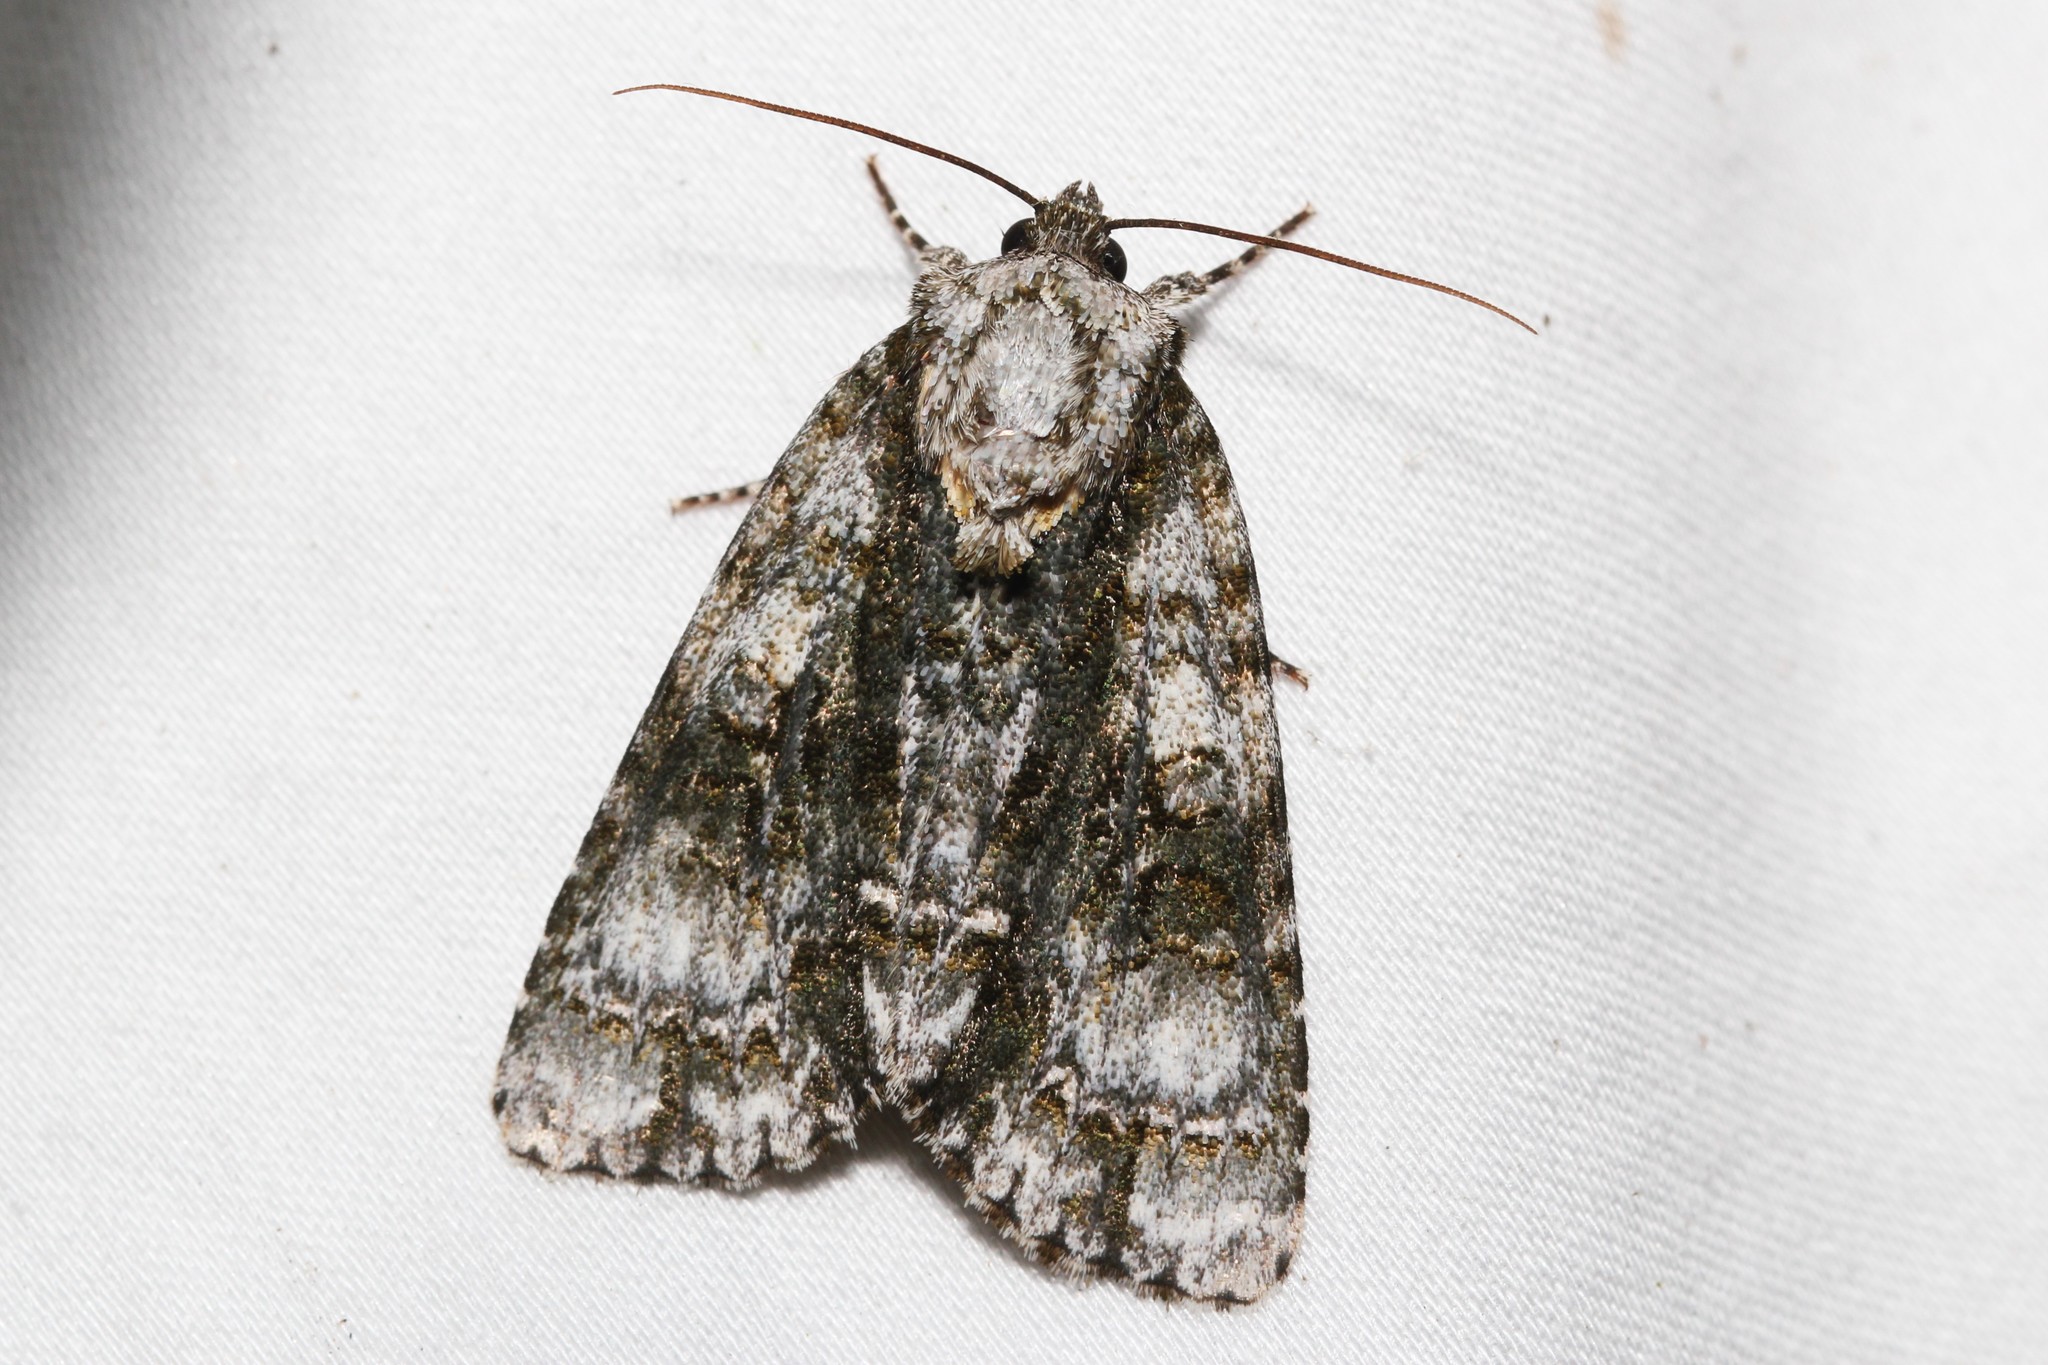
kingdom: Animalia
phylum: Arthropoda
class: Insecta
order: Lepidoptera
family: Noctuidae
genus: Acronicta
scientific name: Acronicta superans
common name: Splendid dagger
